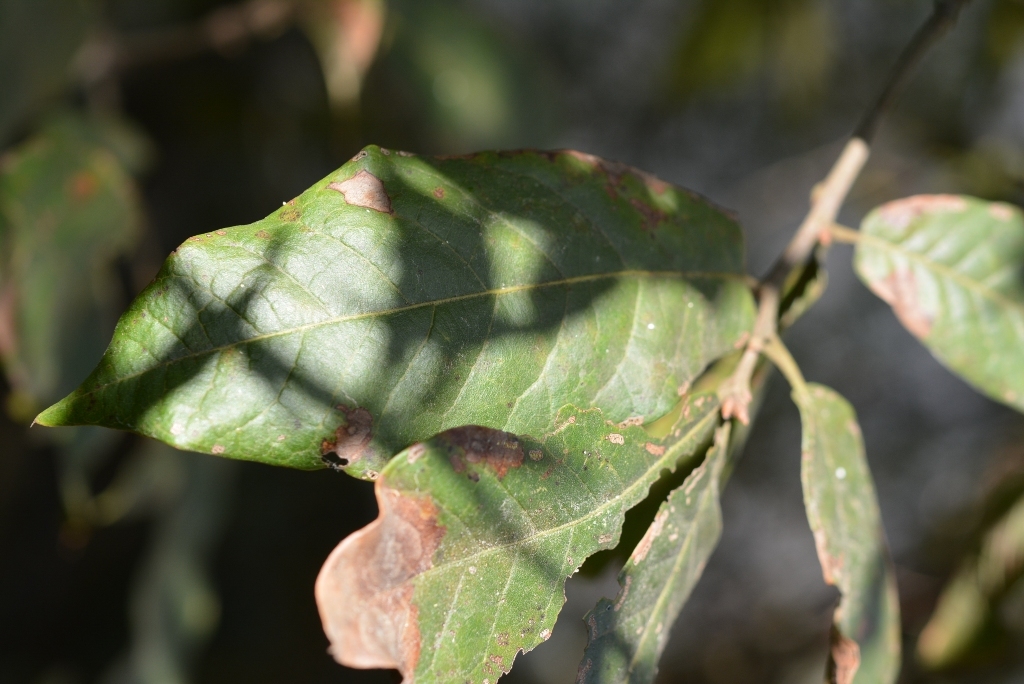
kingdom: Plantae
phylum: Tracheophyta
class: Magnoliopsida
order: Fagales
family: Fagaceae
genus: Quercus
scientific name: Quercus crispipilis
